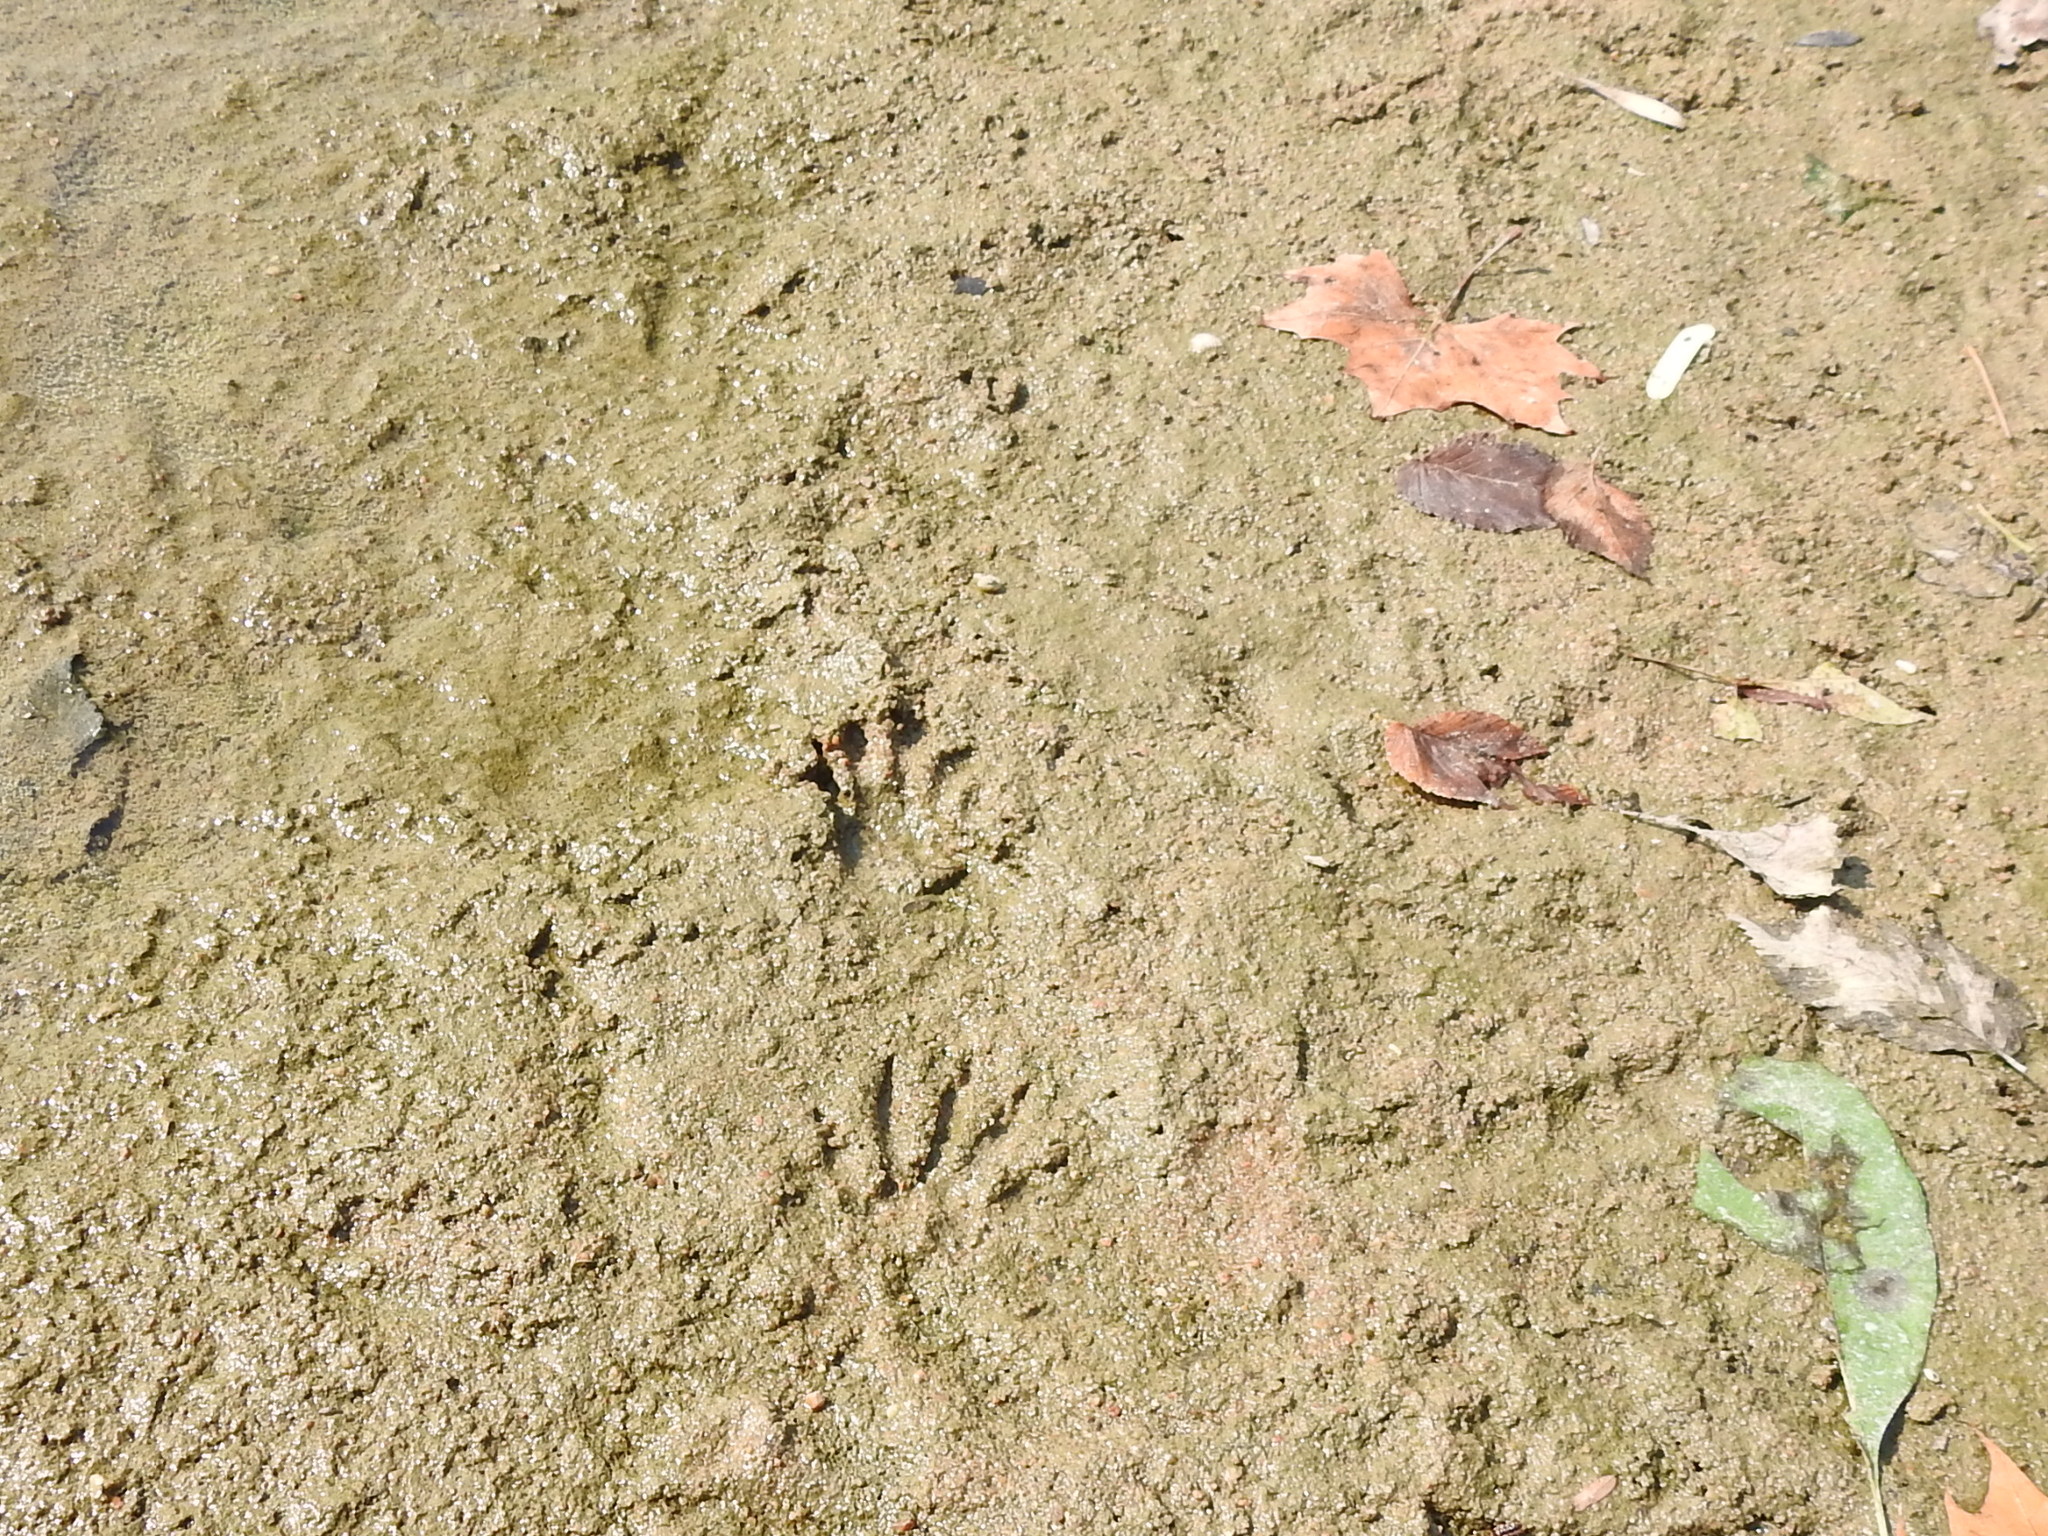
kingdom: Animalia
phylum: Chordata
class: Mammalia
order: Carnivora
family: Procyonidae
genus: Procyon
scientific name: Procyon lotor
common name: Raccoon
